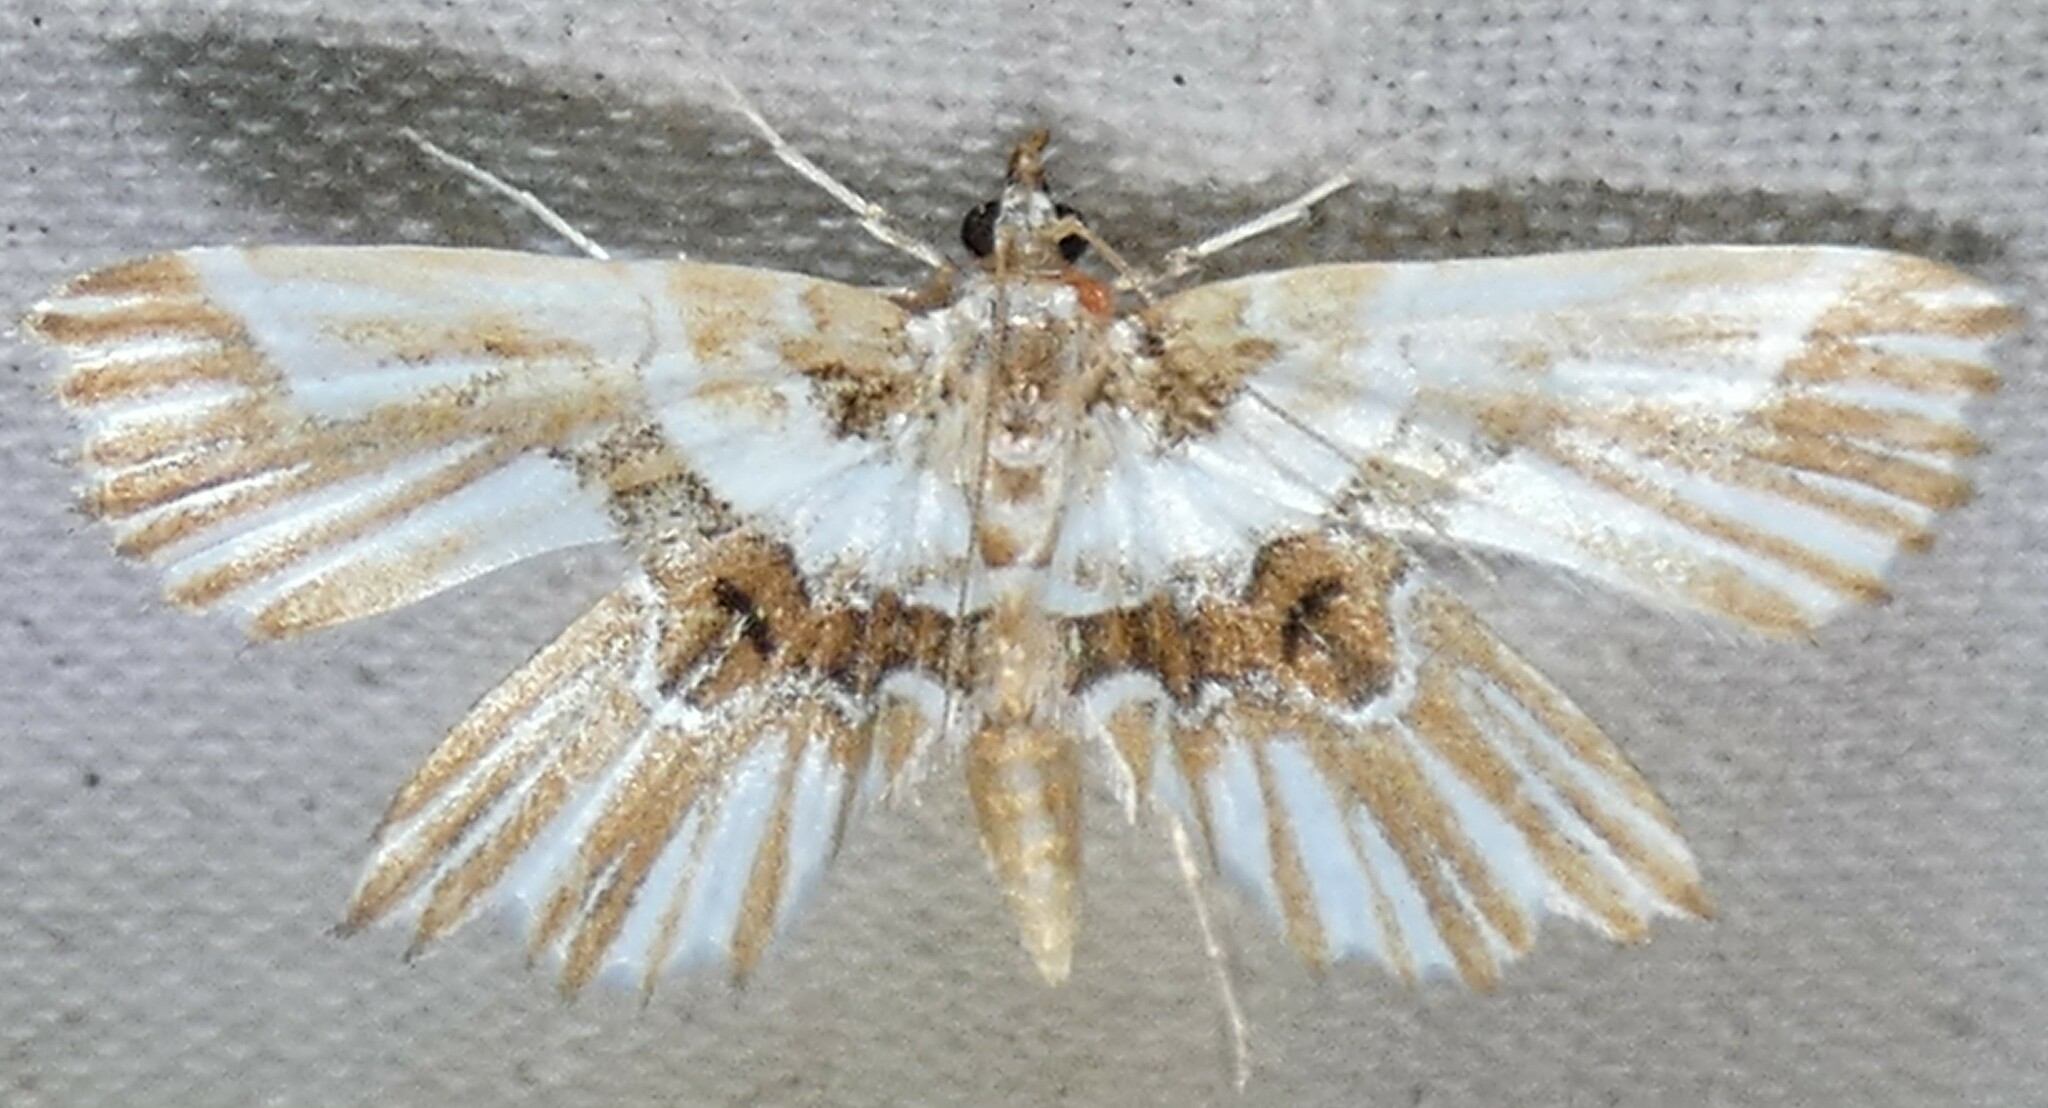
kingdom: Animalia
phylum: Arthropoda
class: Insecta
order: Lepidoptera
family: Pyralidae
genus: Undulambia
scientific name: Undulambia striatalis
